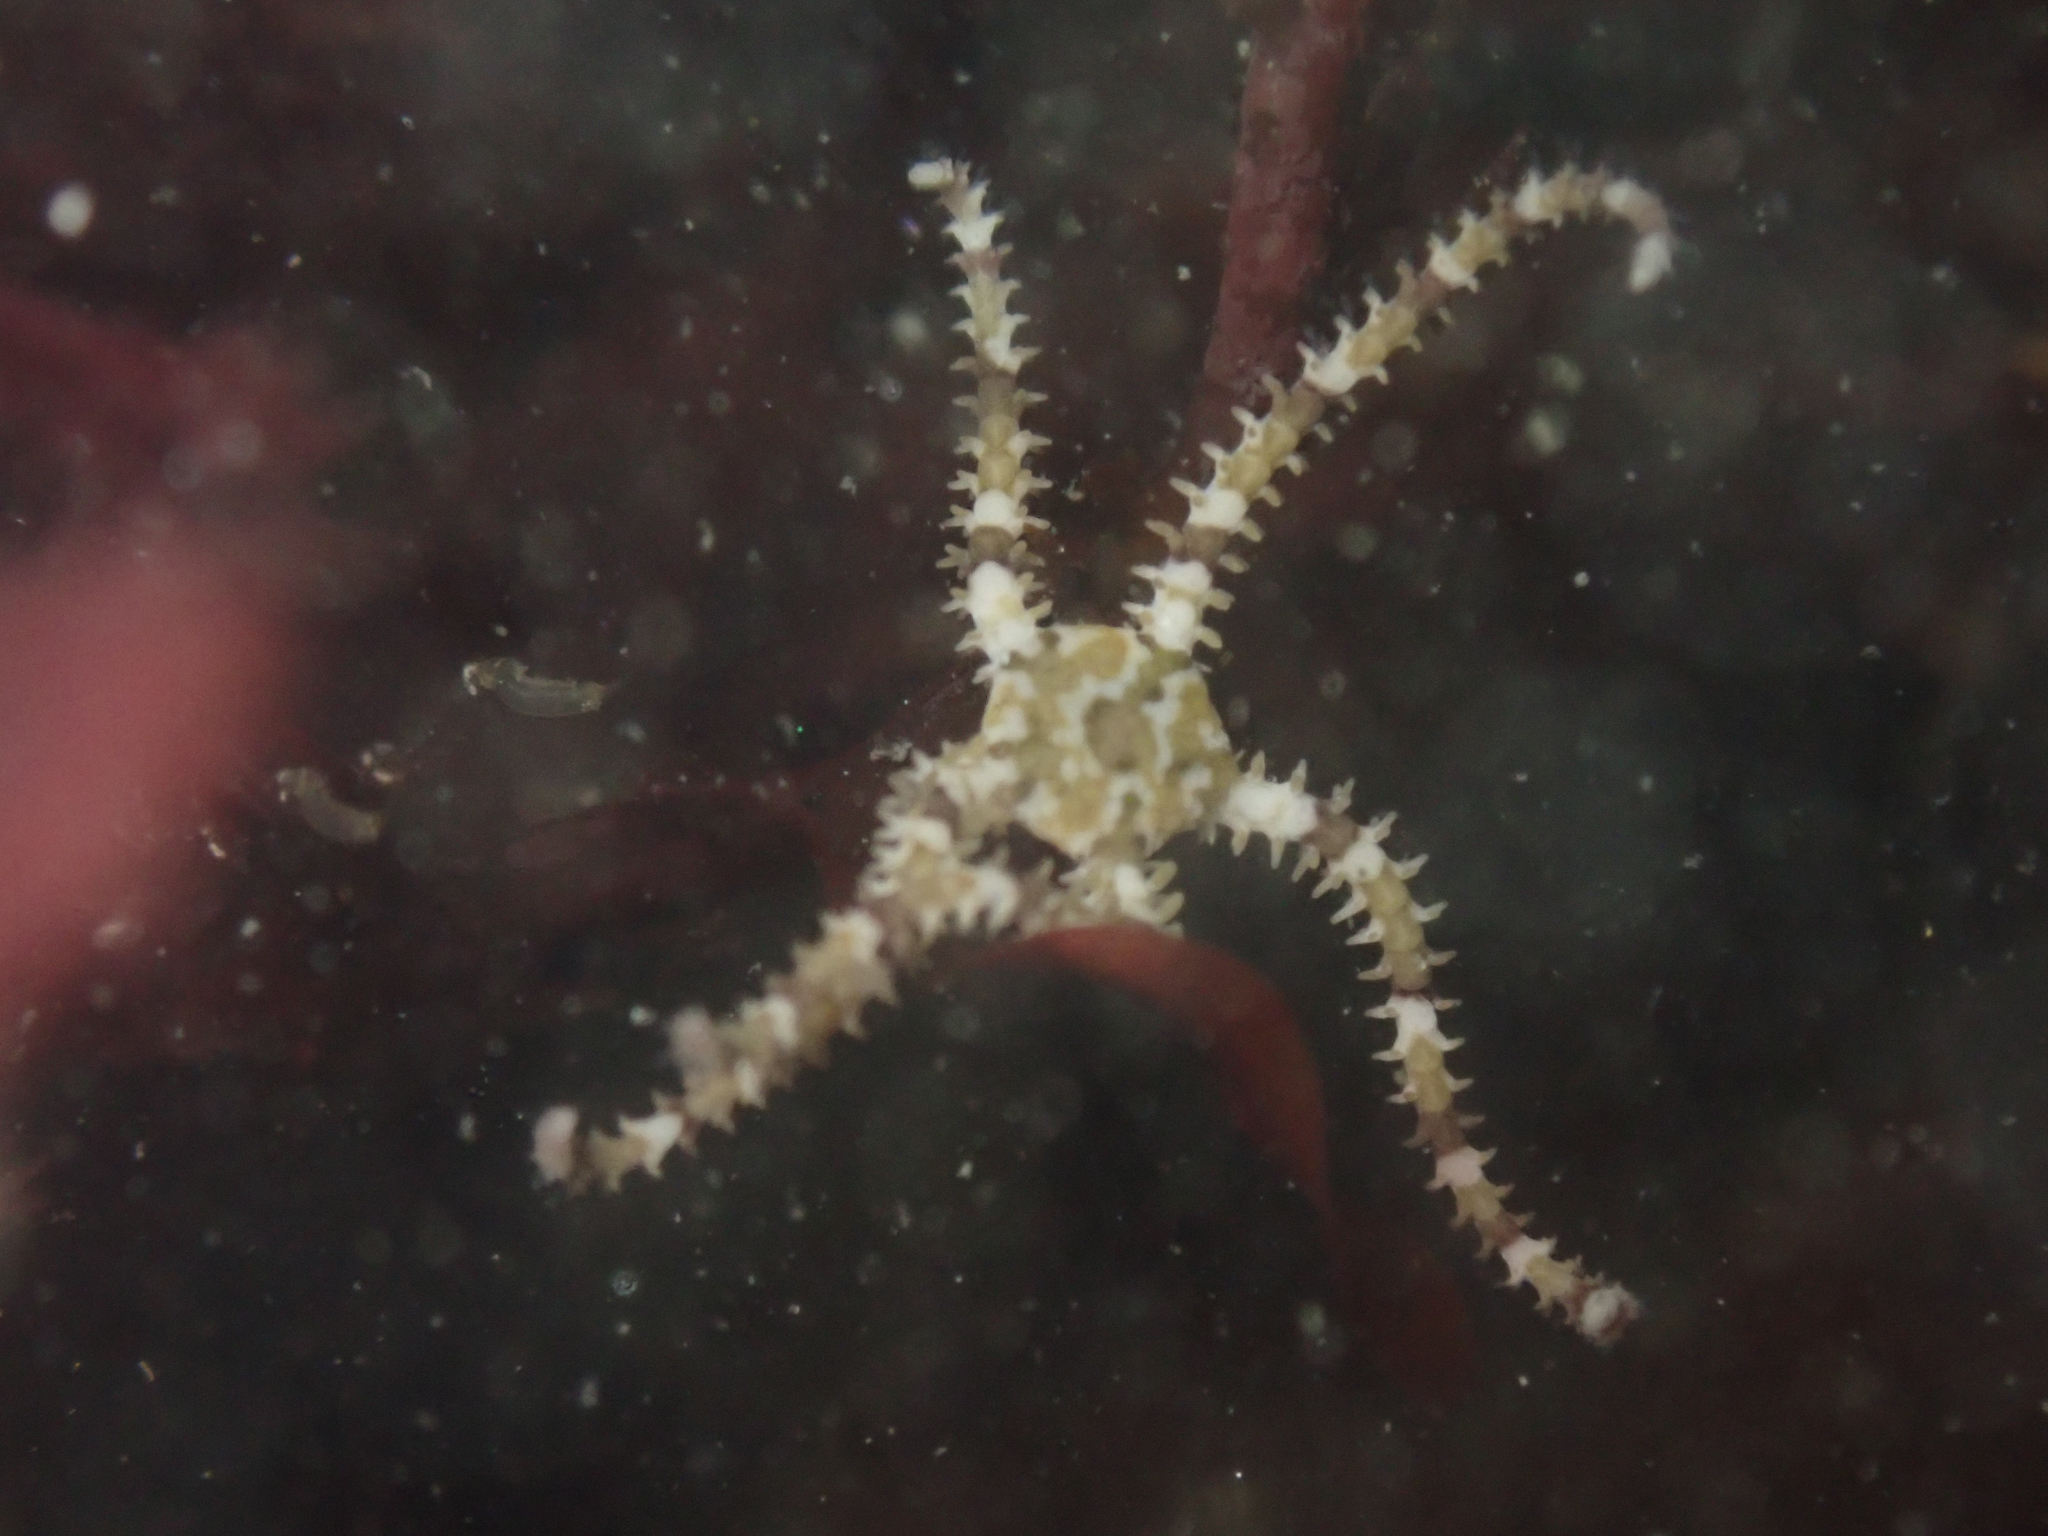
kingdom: Animalia
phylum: Echinodermata
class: Ophiuroidea
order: Amphilepidida
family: Ophionereididae
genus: Ophionereis
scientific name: Ophionereis diabloensis
